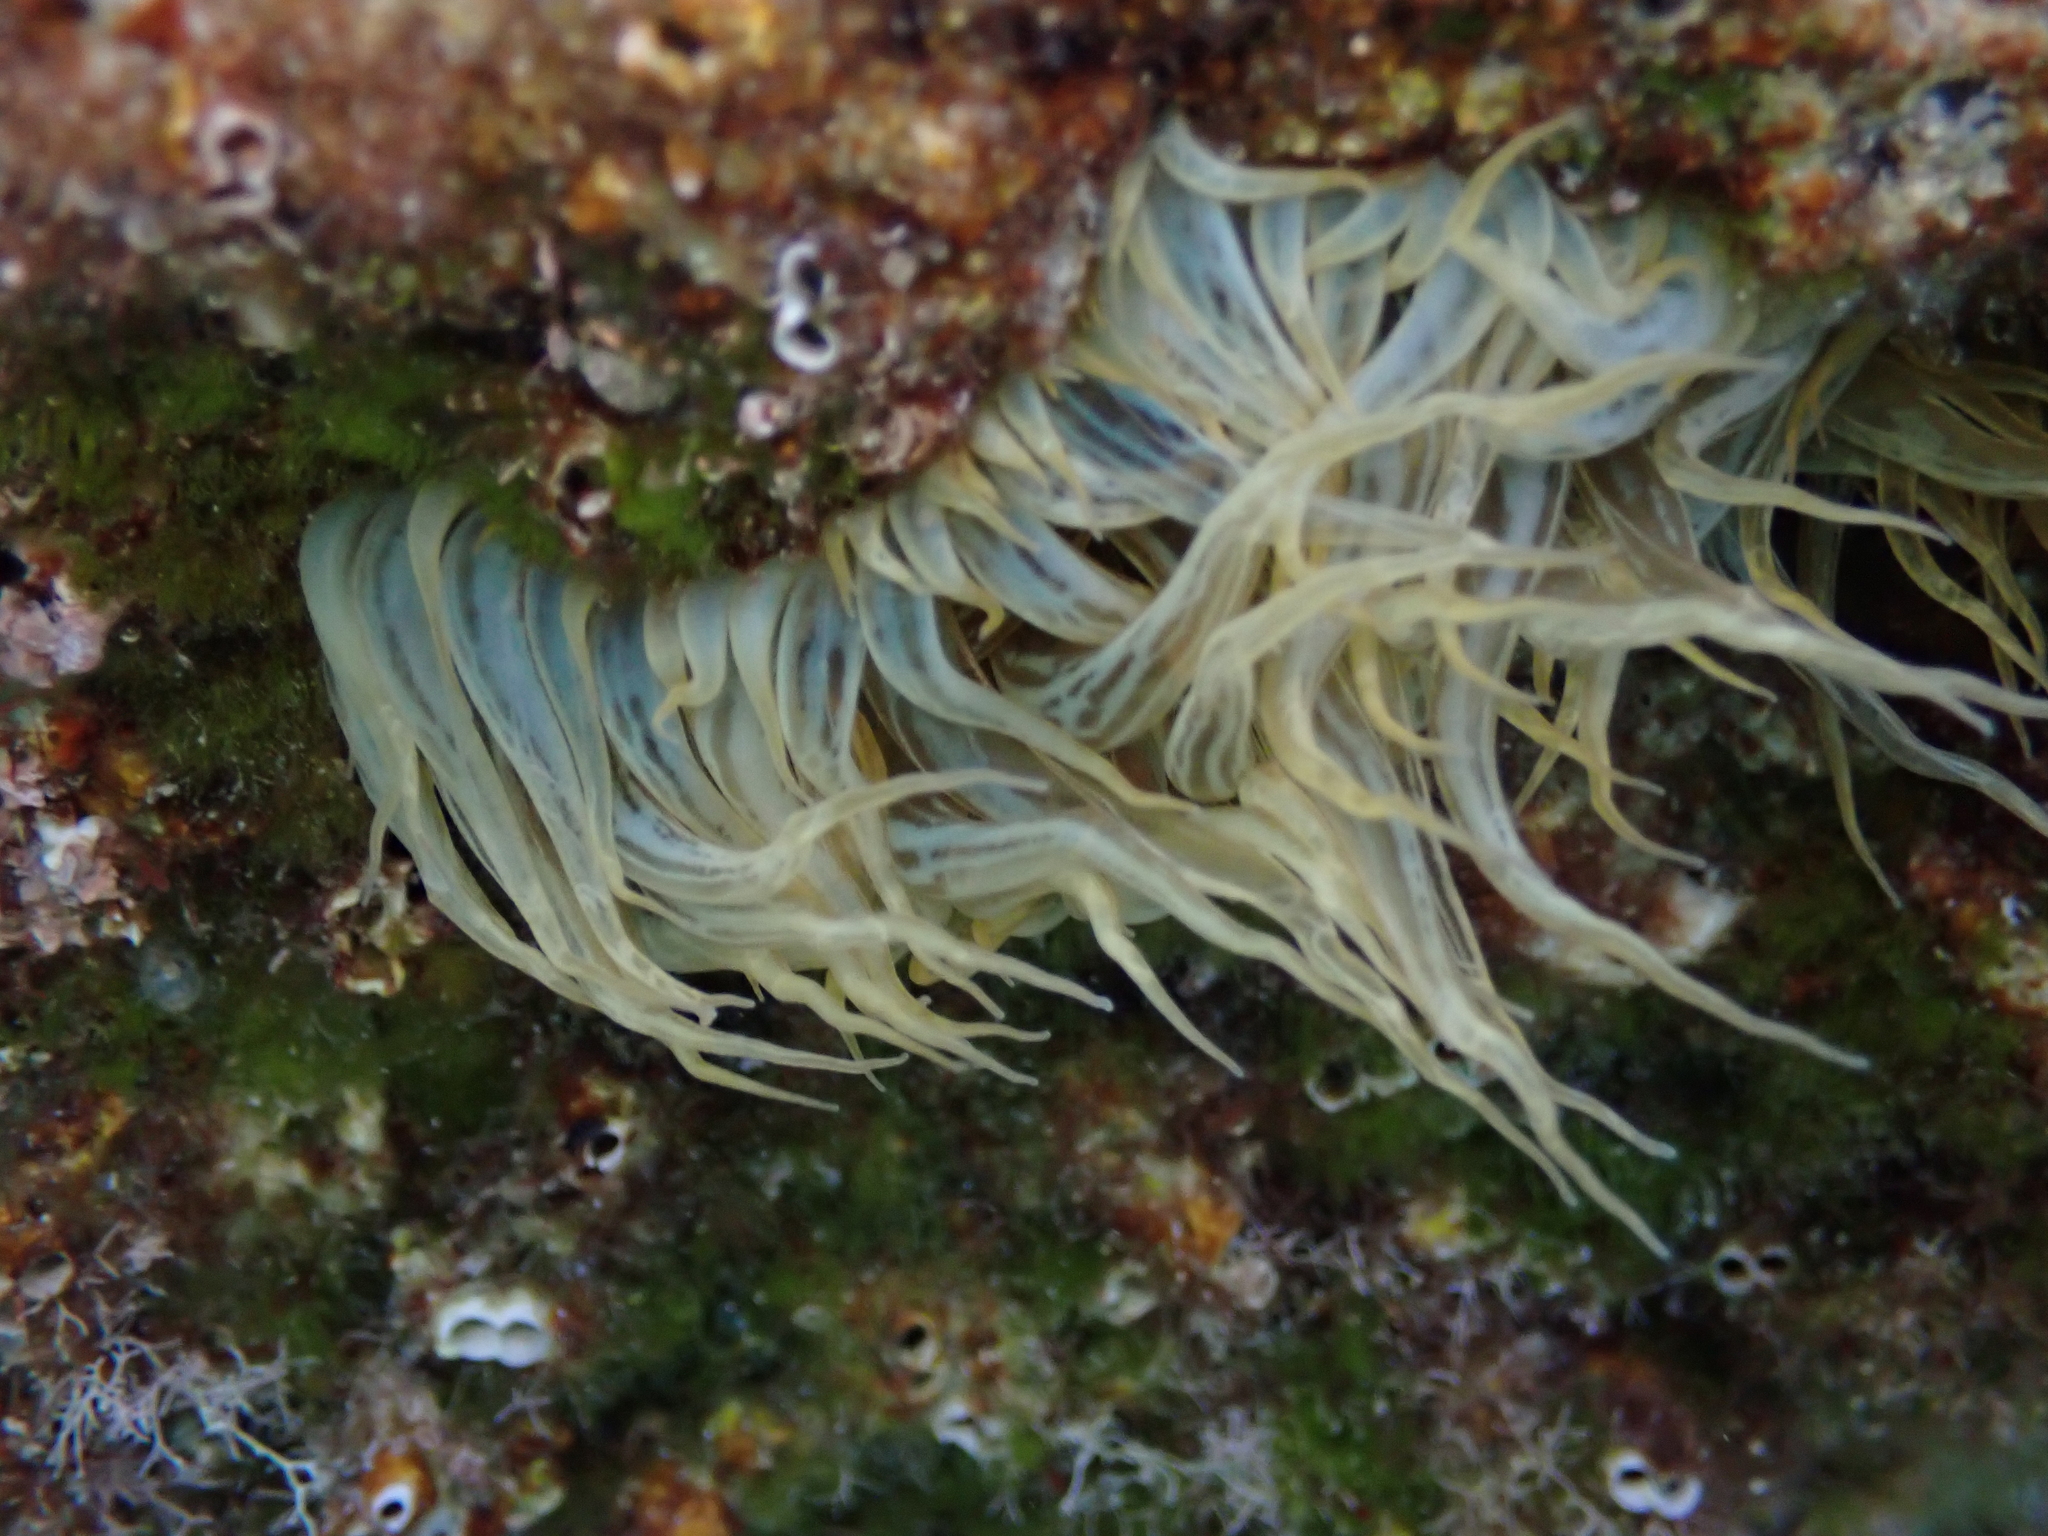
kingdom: Animalia
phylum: Cnidaria
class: Anthozoa
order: Actiniaria
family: Aiptasiidae
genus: Aiptasia
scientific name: Aiptasia mutabilis
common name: Trumpet anemone
